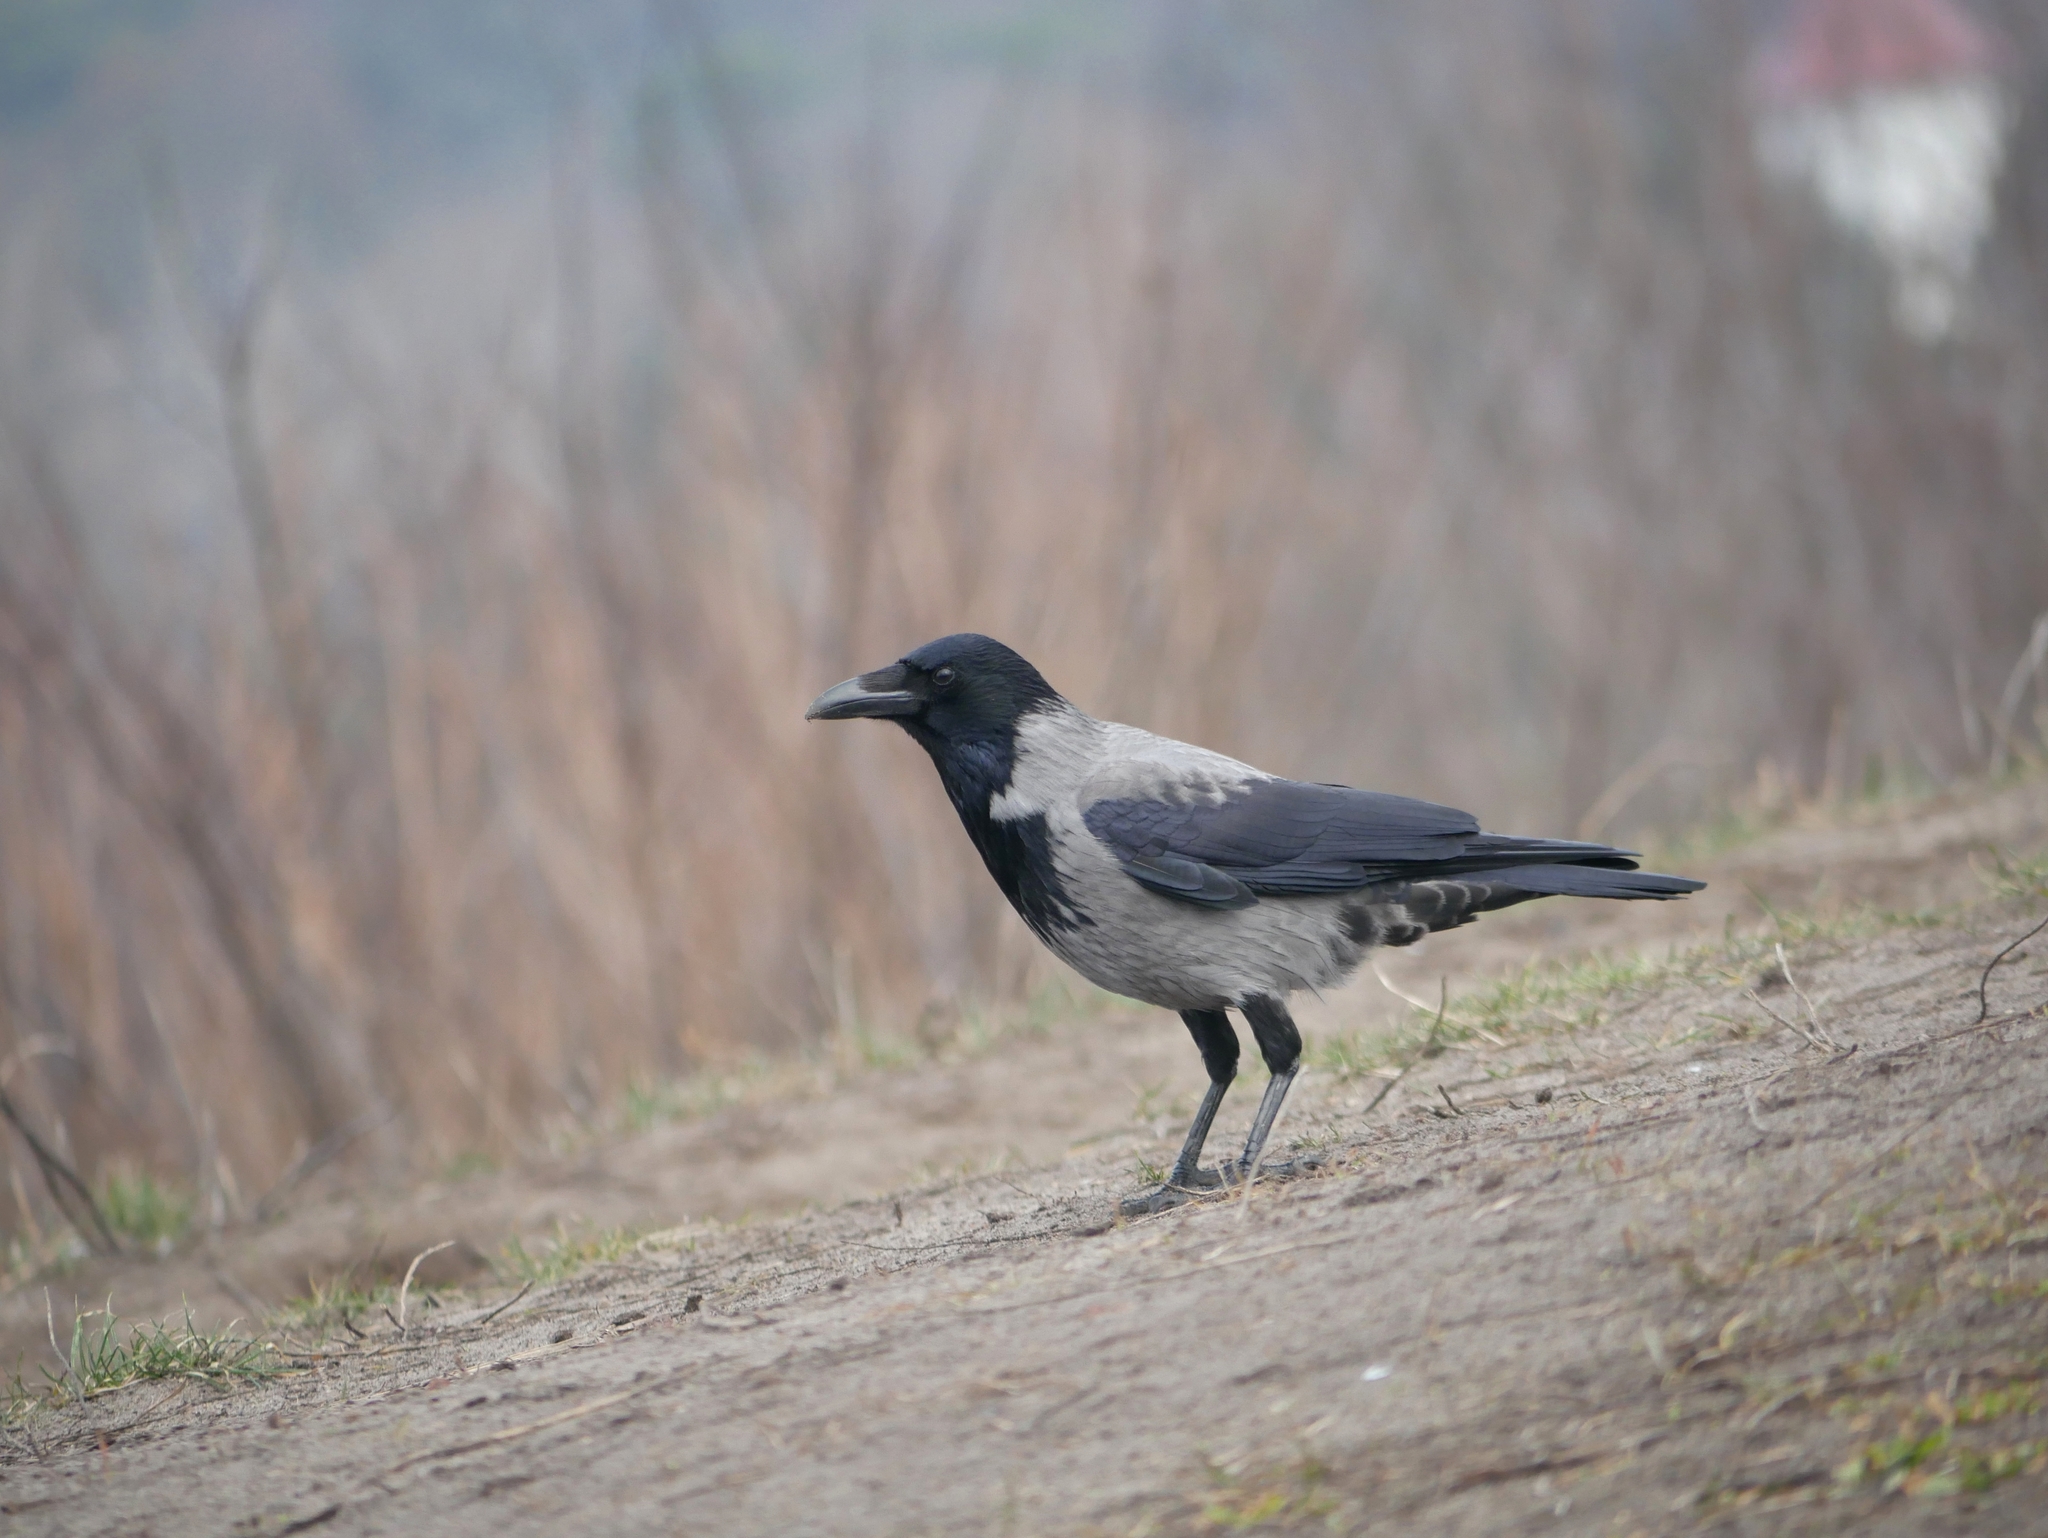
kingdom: Animalia
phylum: Chordata
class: Aves
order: Passeriformes
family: Corvidae
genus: Corvus
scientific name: Corvus
